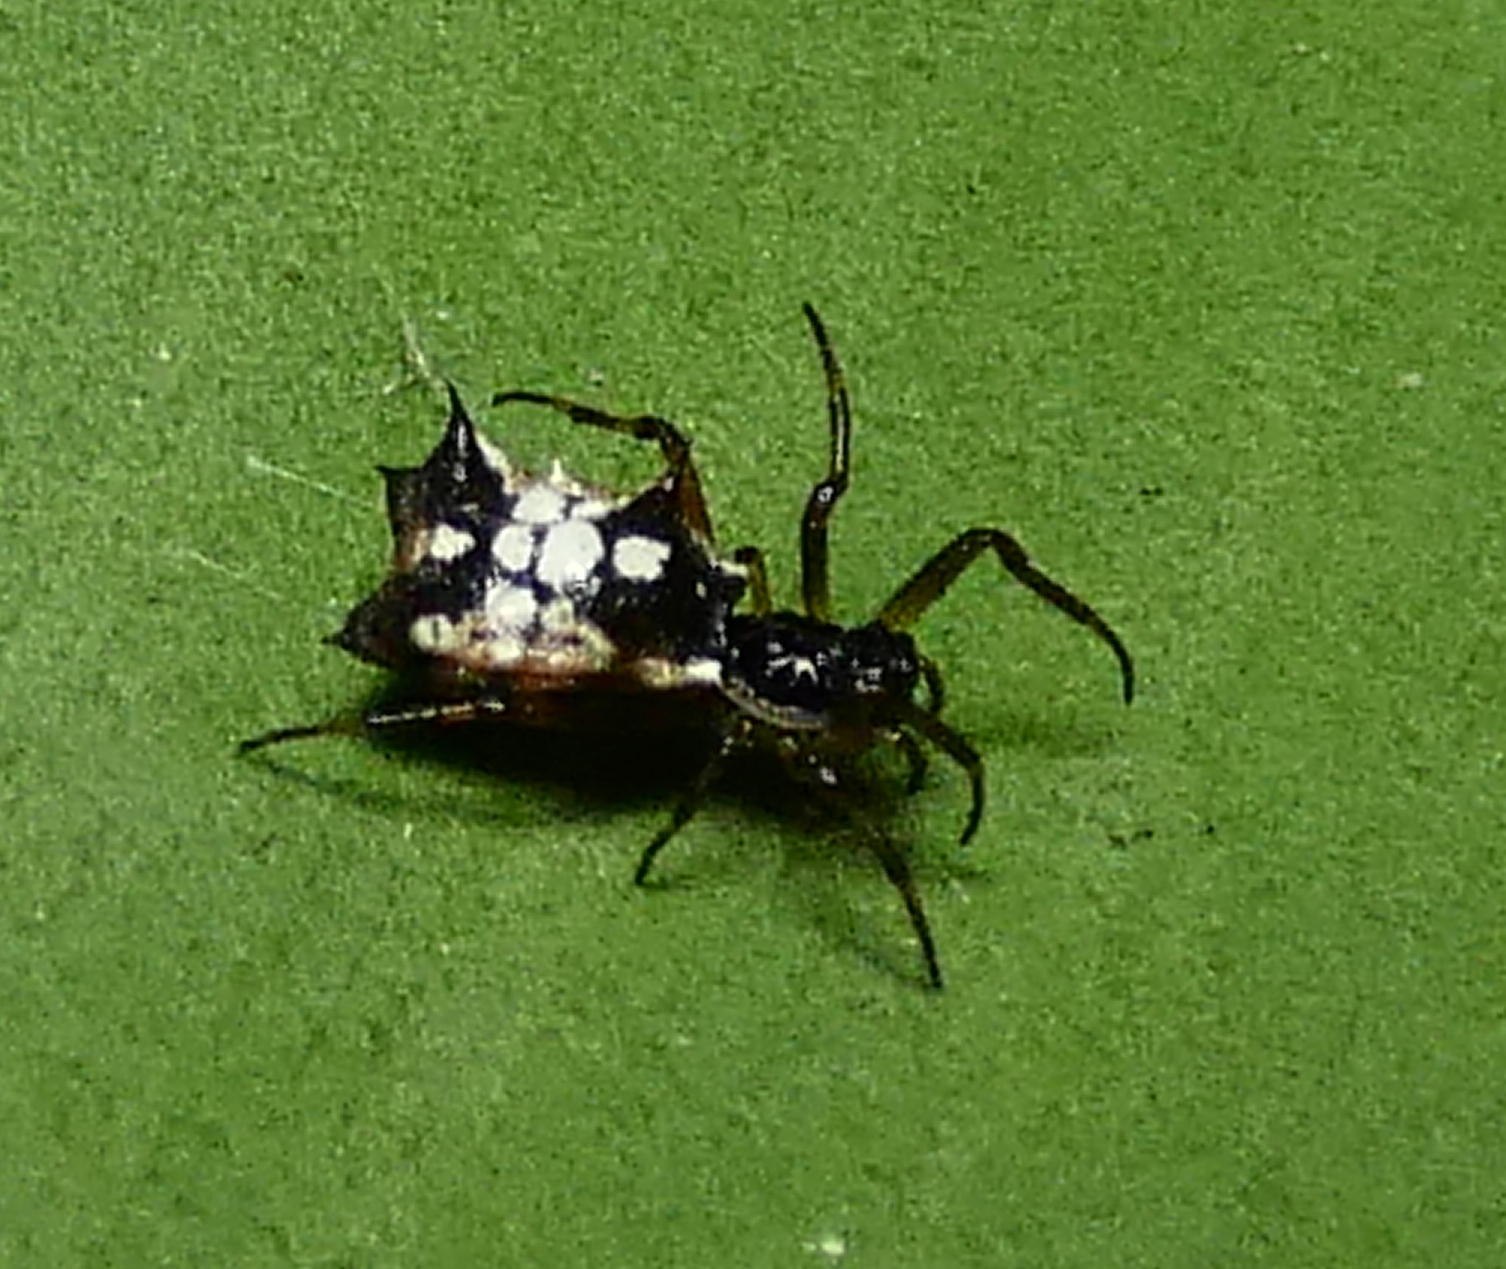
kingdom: Animalia
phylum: Arthropoda
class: Arachnida
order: Araneae
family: Araneidae
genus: Micrathena
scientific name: Micrathena picta
